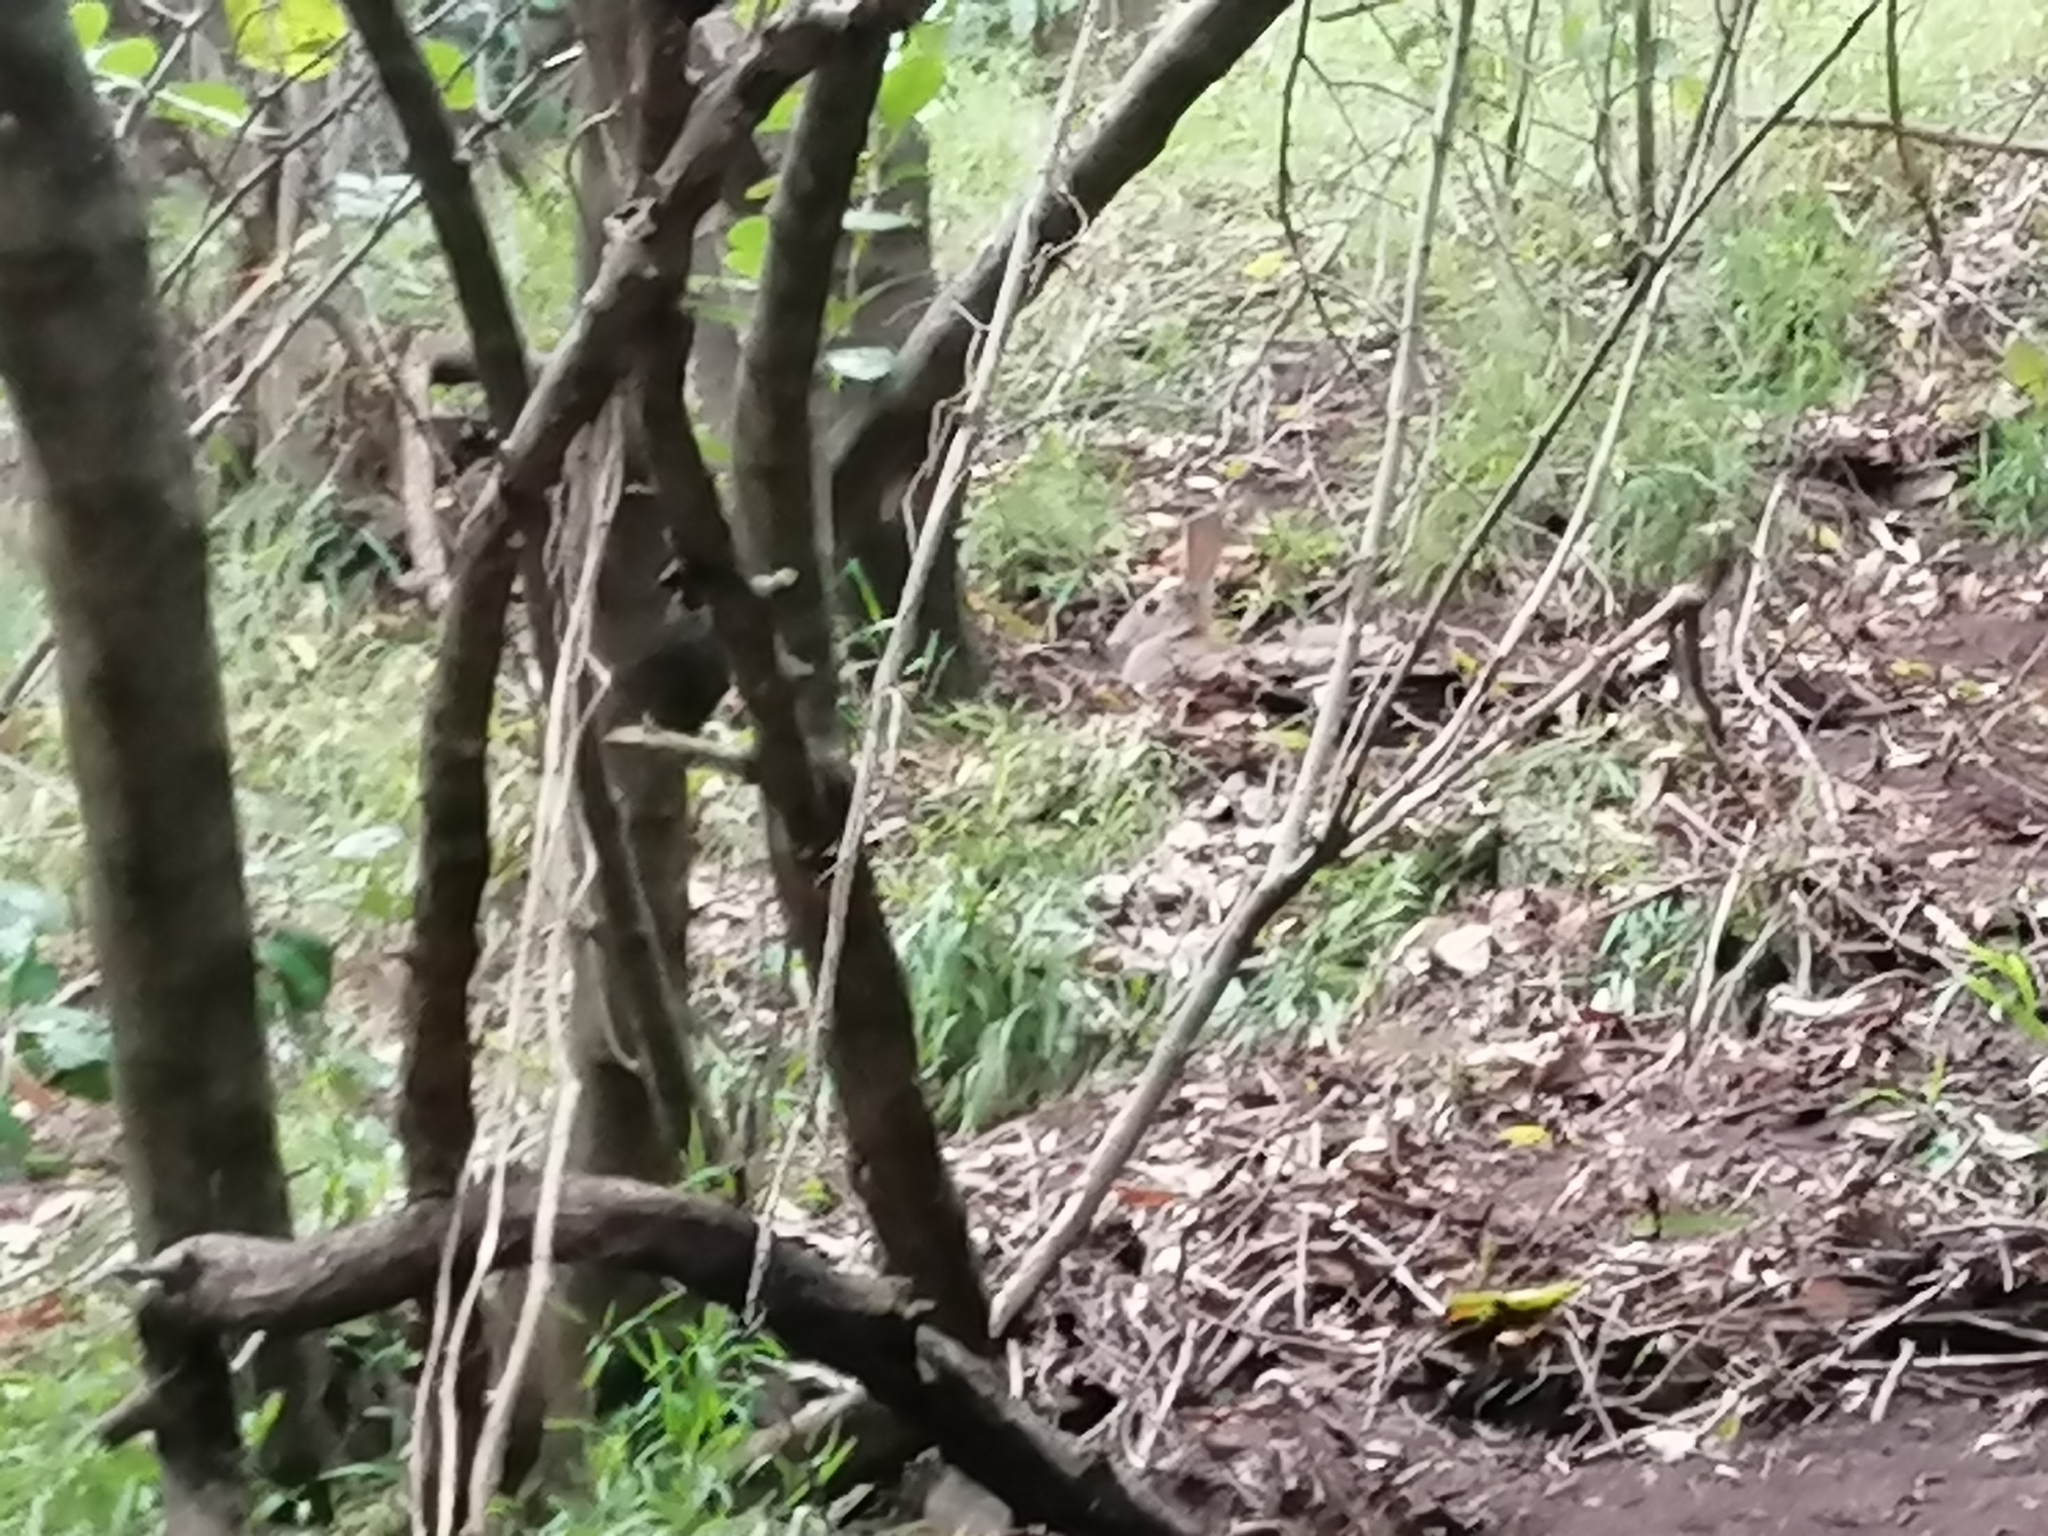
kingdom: Animalia
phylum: Chordata
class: Mammalia
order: Lagomorpha
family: Leporidae
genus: Oryctolagus
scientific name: Oryctolagus cuniculus
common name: European rabbit
